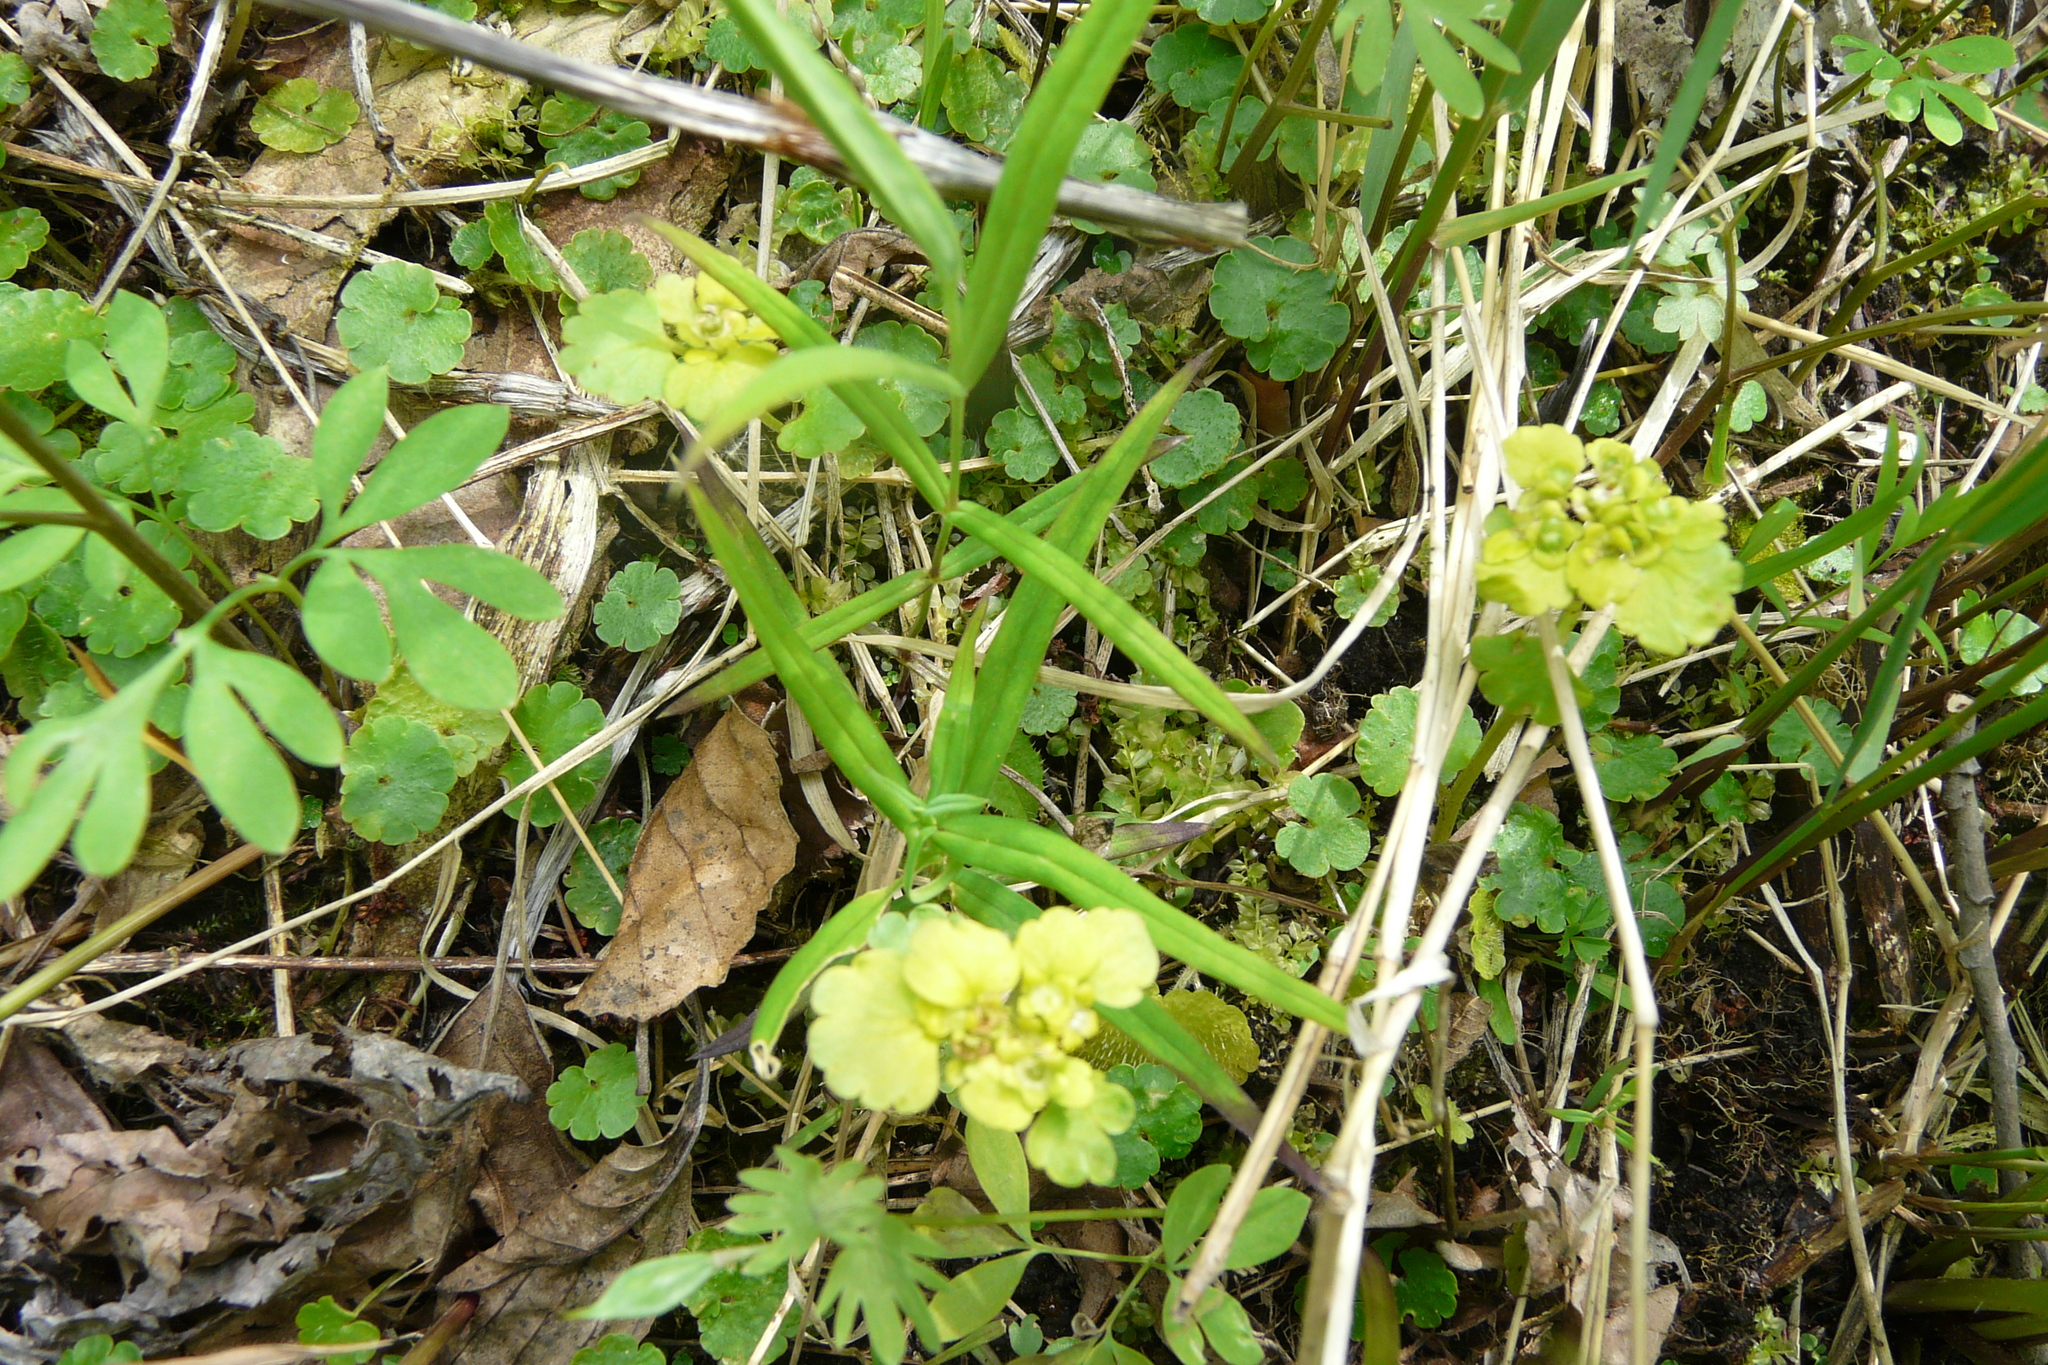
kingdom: Plantae
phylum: Tracheophyta
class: Magnoliopsida
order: Saxifragales
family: Saxifragaceae
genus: Chrysosplenium
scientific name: Chrysosplenium alternifolium
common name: Alternate-leaved golden-saxifrage
